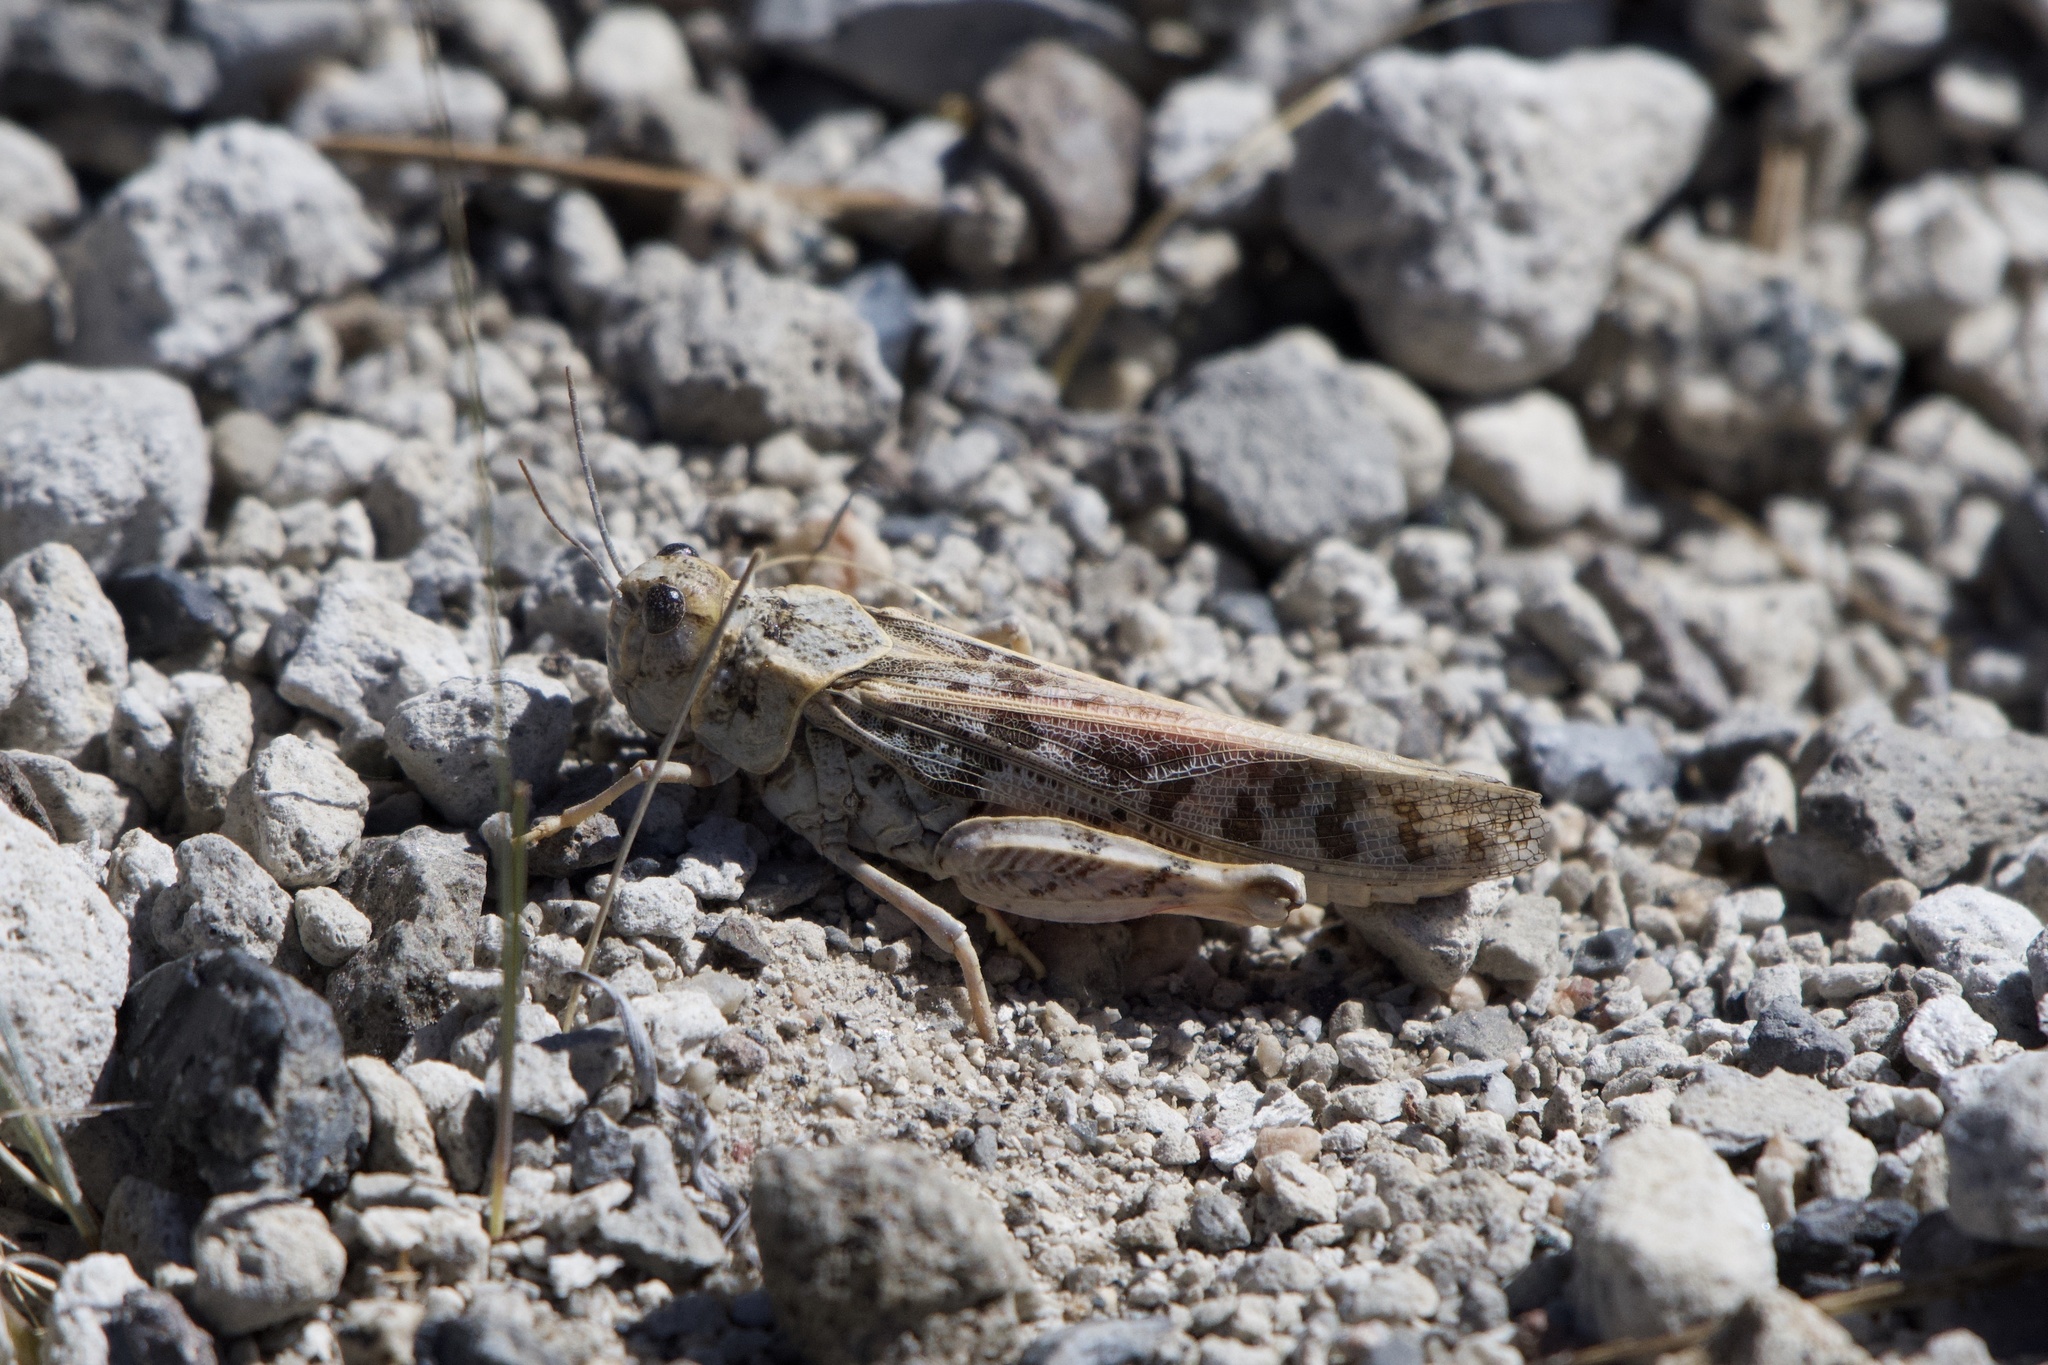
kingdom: Animalia
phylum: Arthropoda
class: Insecta
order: Orthoptera
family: Acrididae
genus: Xanthippus
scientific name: Xanthippus corallipes
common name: Redshanked grasshopper
